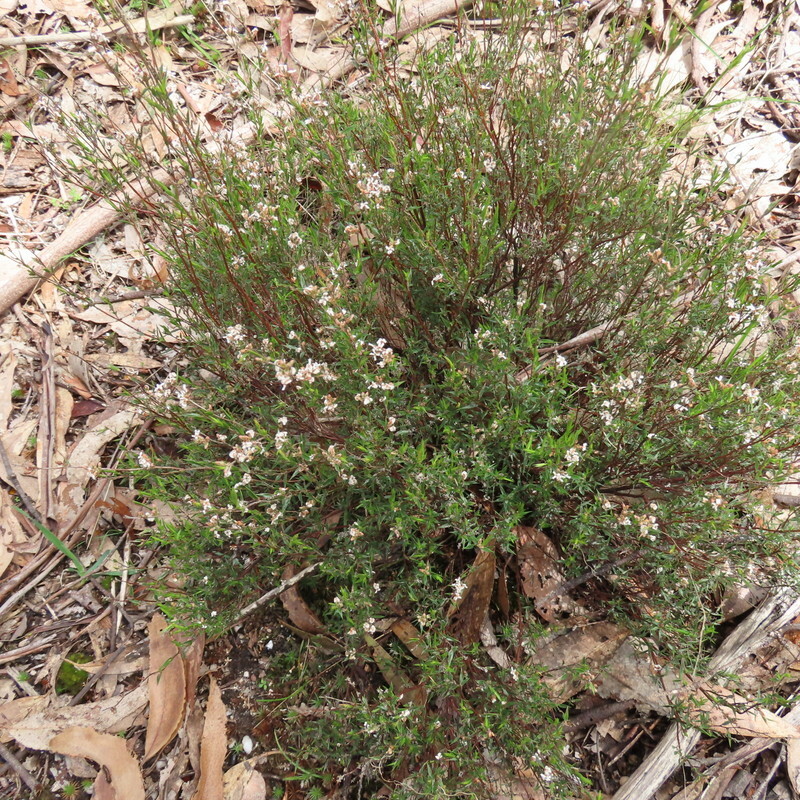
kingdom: Plantae
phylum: Tracheophyta
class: Magnoliopsida
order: Ericales
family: Ericaceae
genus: Leucopogon
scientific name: Leucopogon virgatus
